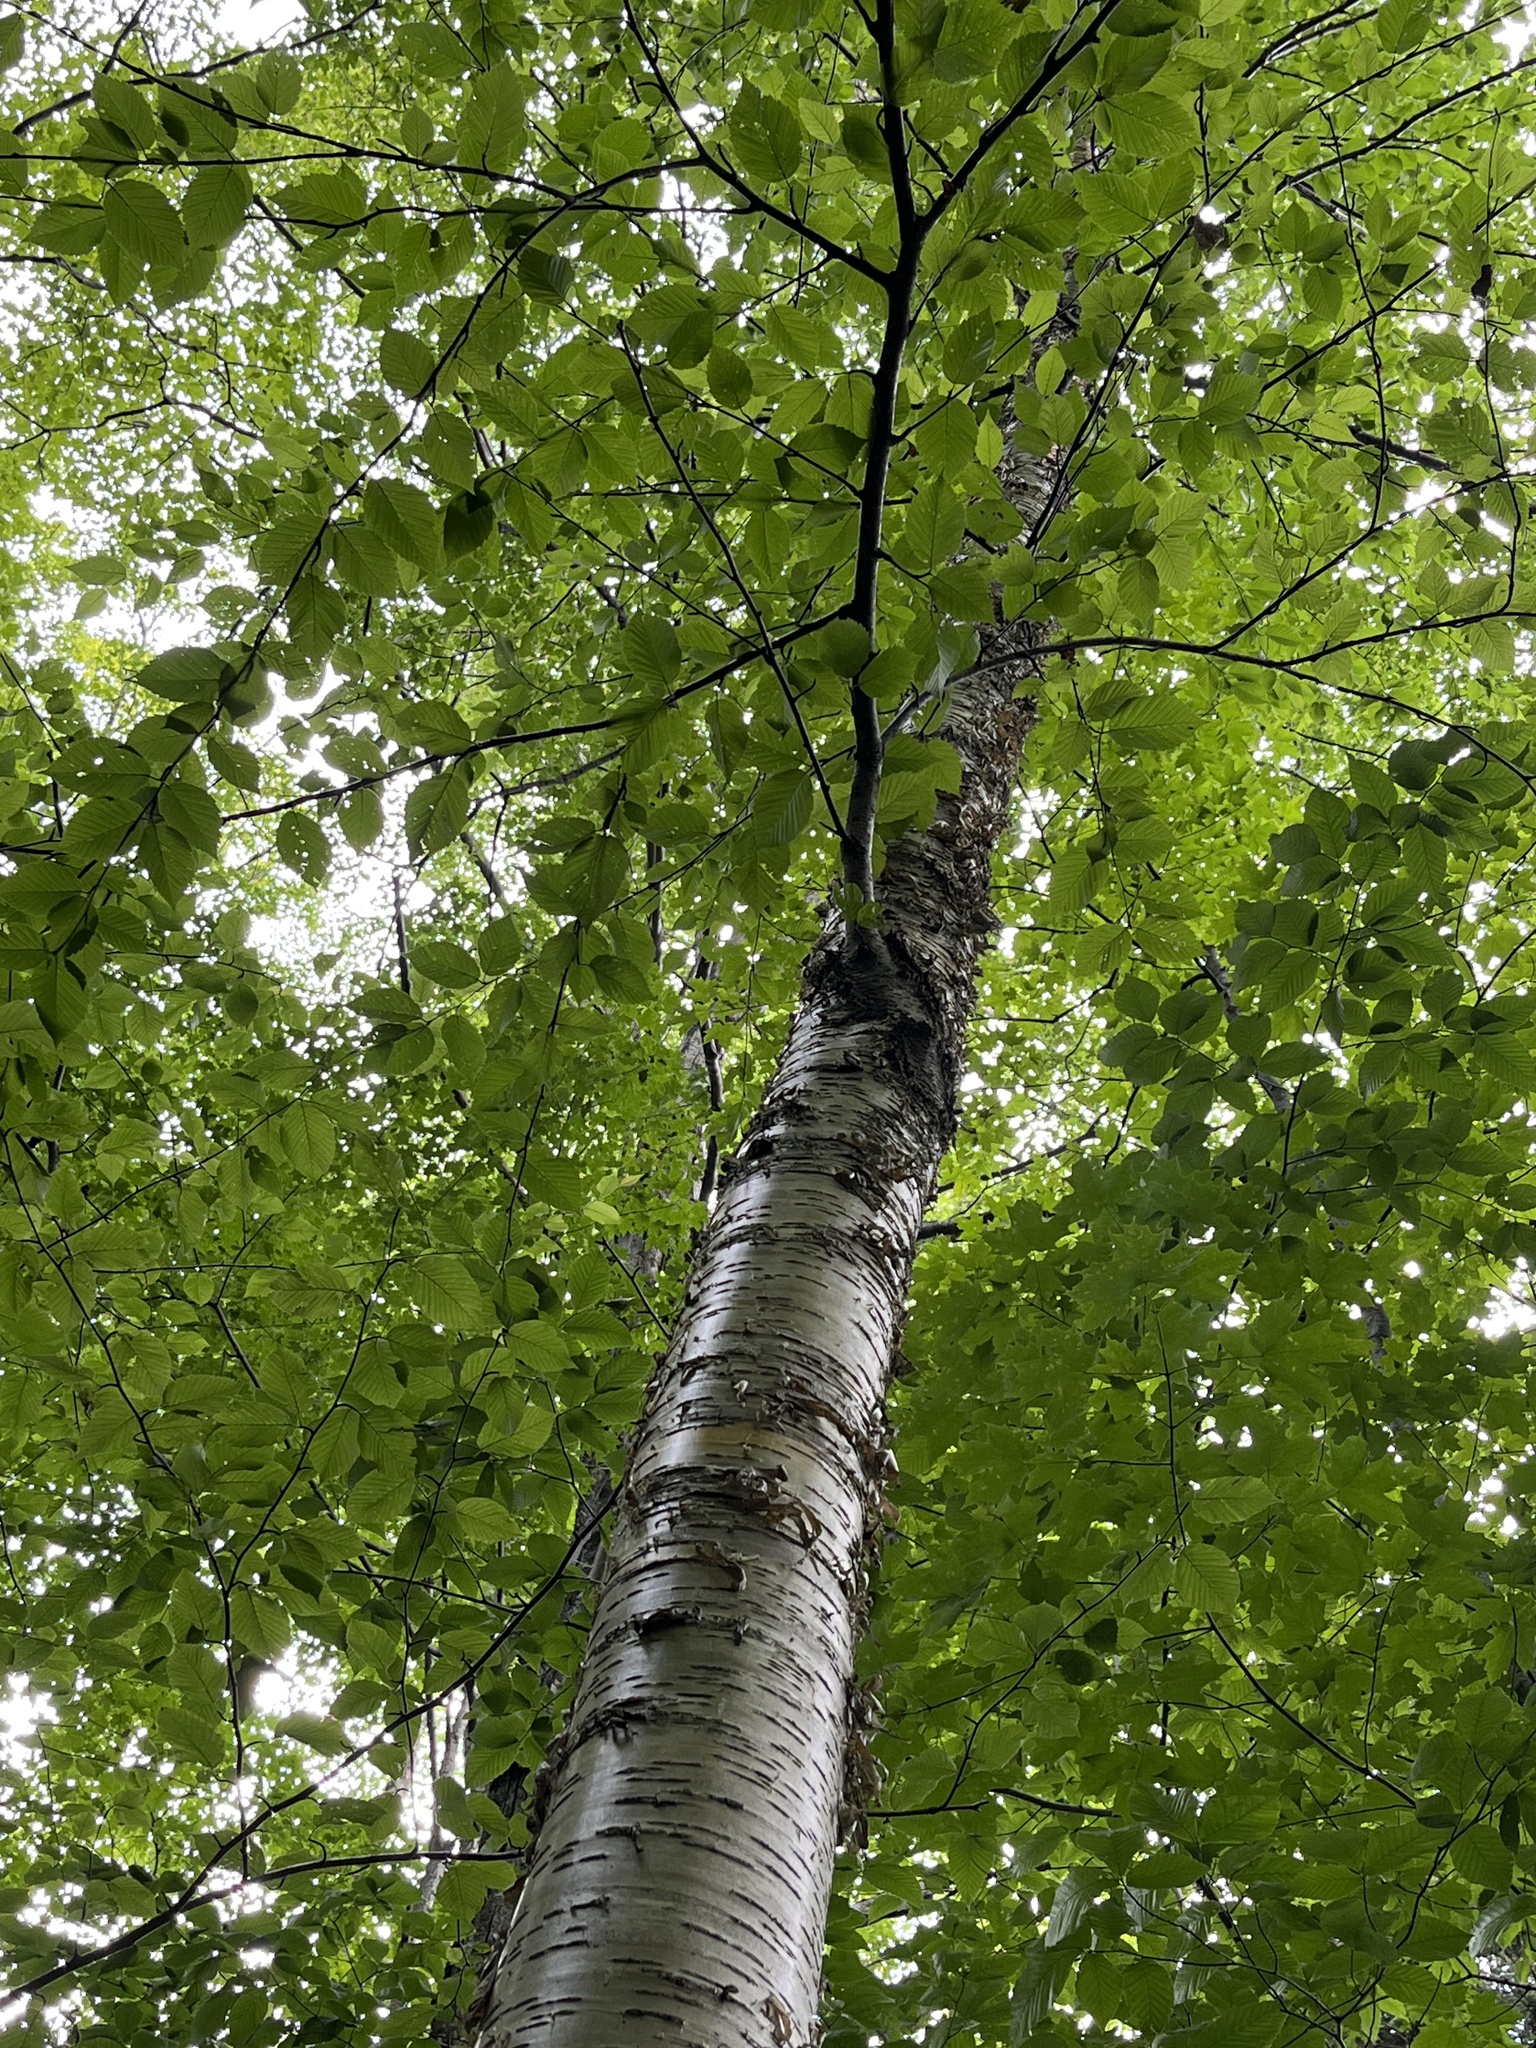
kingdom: Plantae
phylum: Tracheophyta
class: Magnoliopsida
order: Fagales
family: Betulaceae
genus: Betula
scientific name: Betula alleghaniensis
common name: Yellow birch
